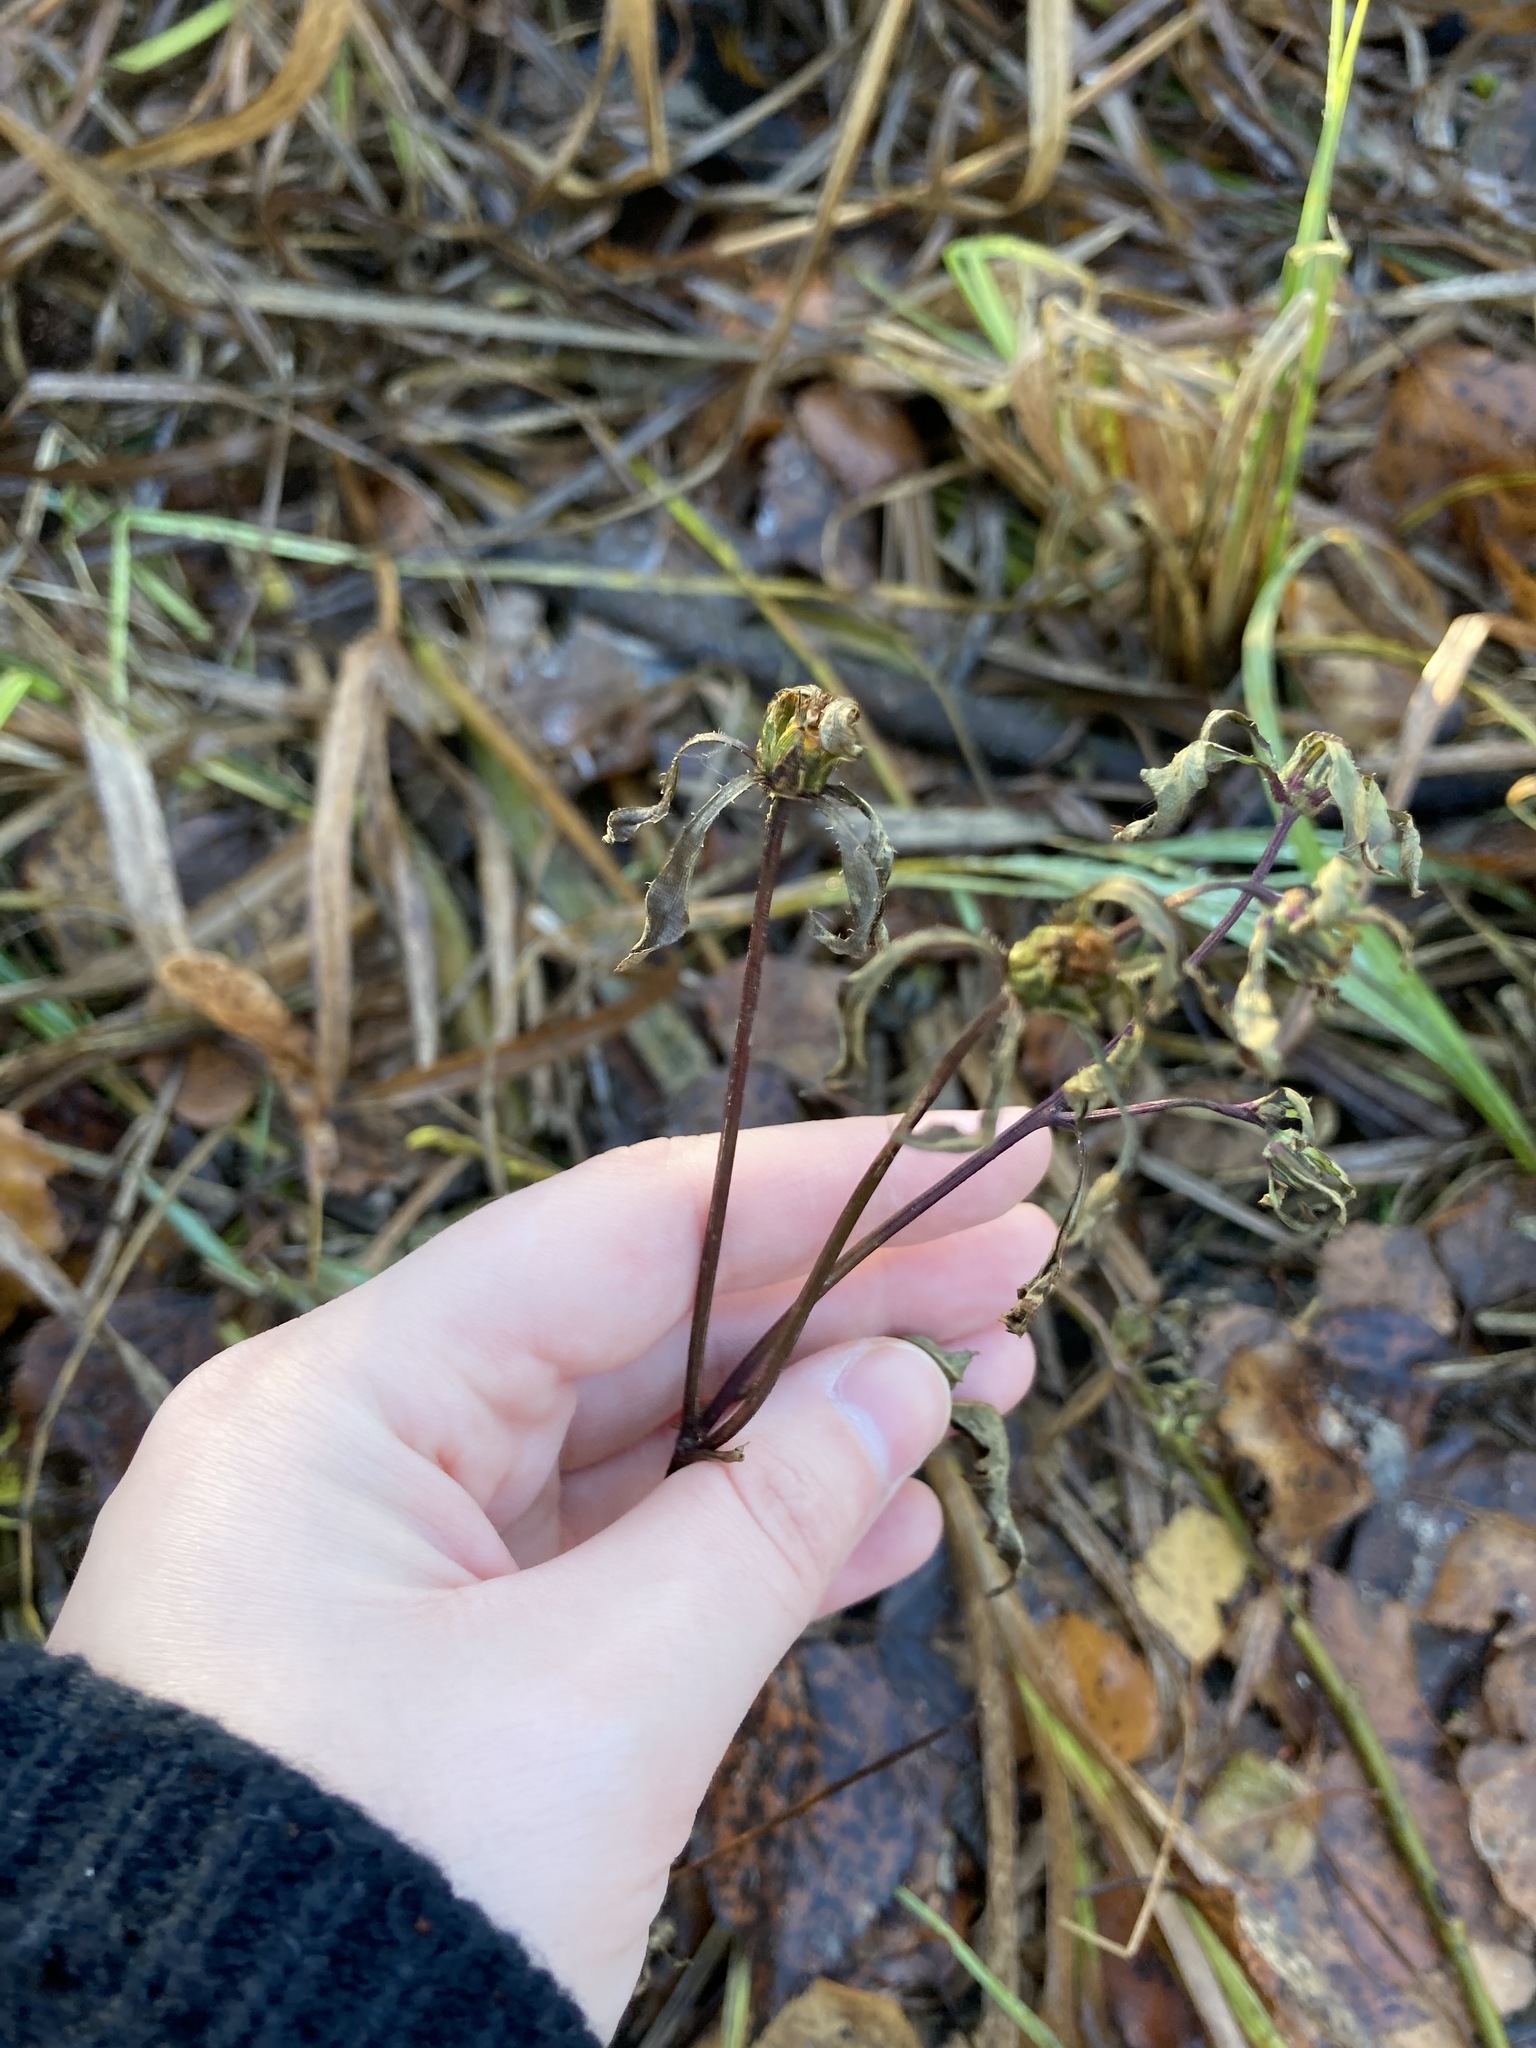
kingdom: Plantae
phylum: Tracheophyta
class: Magnoliopsida
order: Asterales
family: Asteraceae
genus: Bidens
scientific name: Bidens frondosa
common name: Beggarticks
